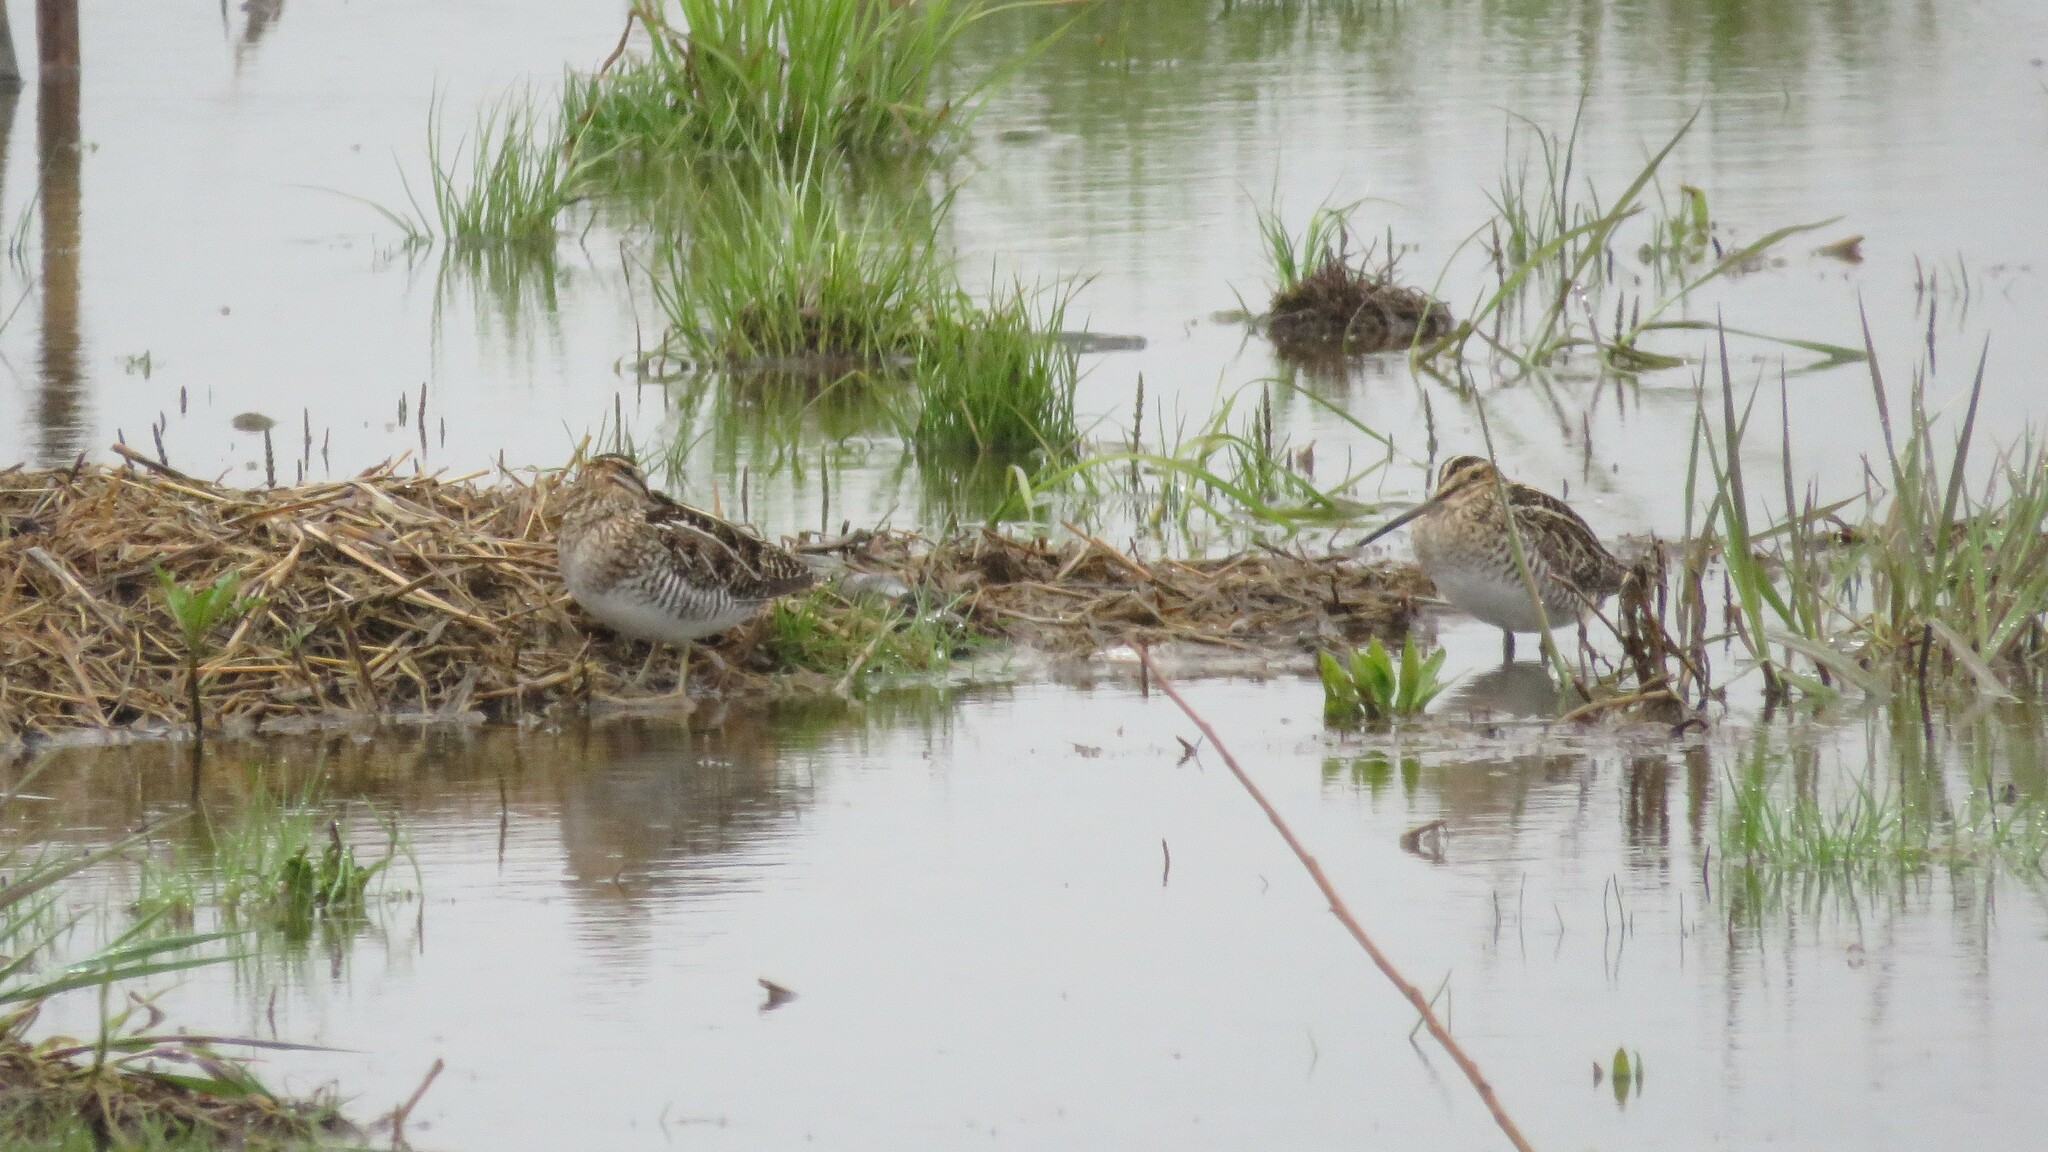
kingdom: Animalia
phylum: Chordata
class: Aves
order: Charadriiformes
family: Scolopacidae
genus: Gallinago
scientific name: Gallinago delicata
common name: Wilson's snipe
